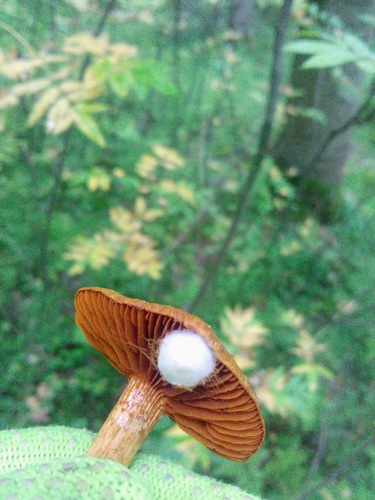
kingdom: Fungi
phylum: Basidiomycota
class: Agaricomycetes
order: Agaricales
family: Cortinariaceae
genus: Cortinarius
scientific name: Cortinarius sanguineus
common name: Bloodred webcap
